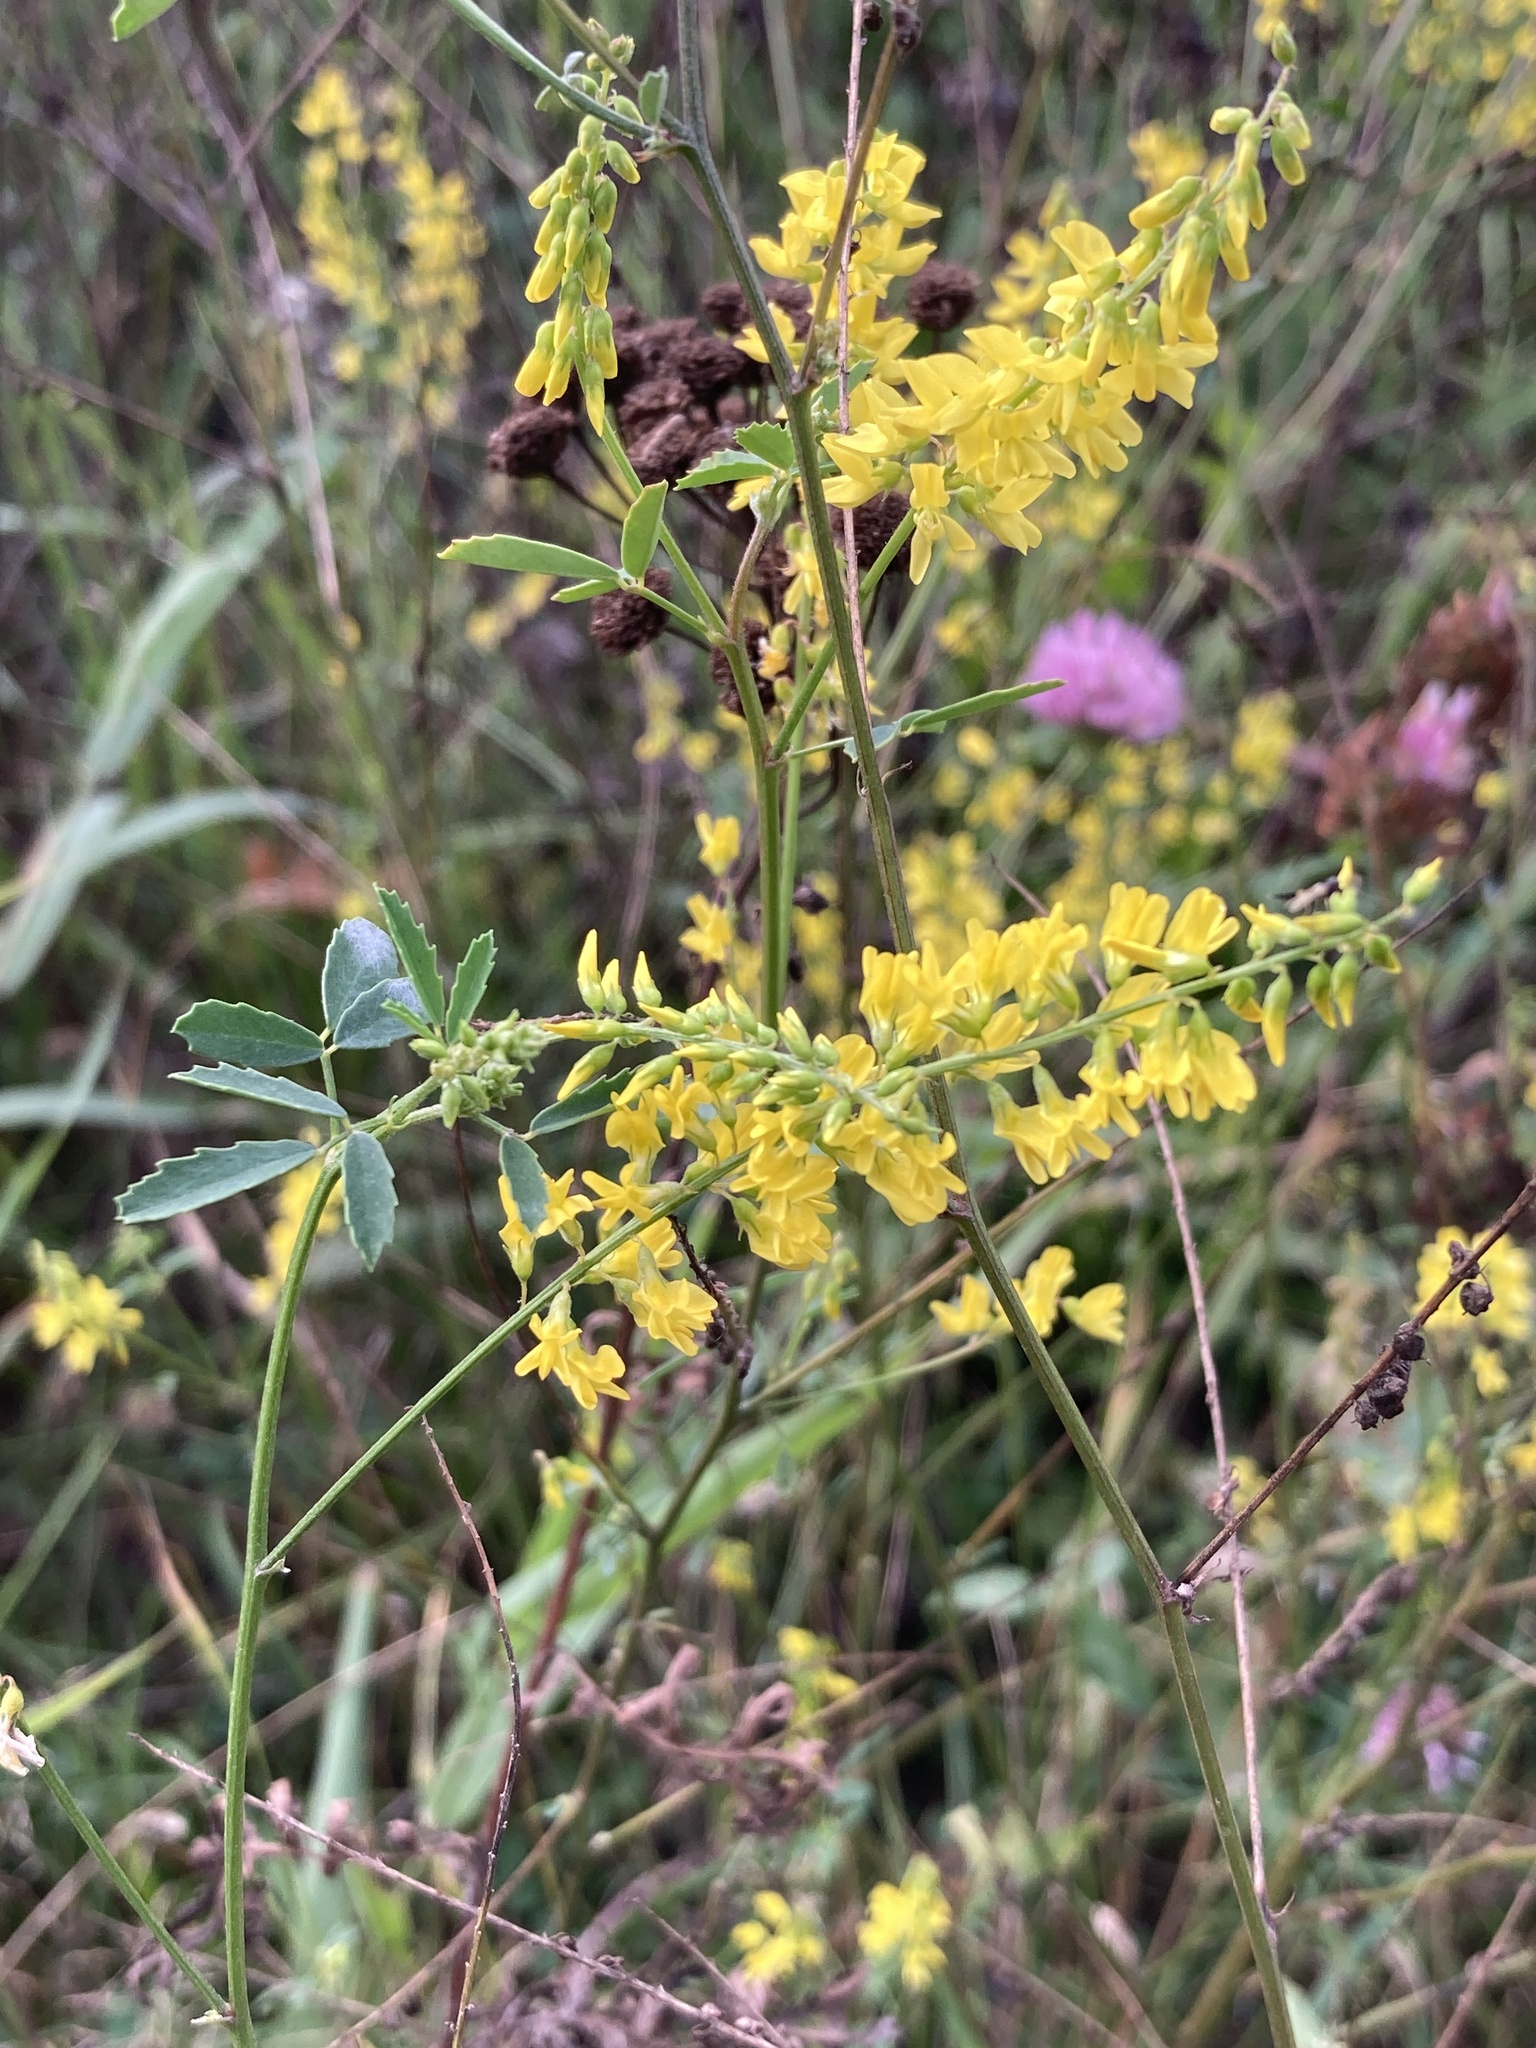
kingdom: Plantae
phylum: Tracheophyta
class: Magnoliopsida
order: Fabales
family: Fabaceae
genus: Melilotus
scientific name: Melilotus officinalis
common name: Sweetclover
